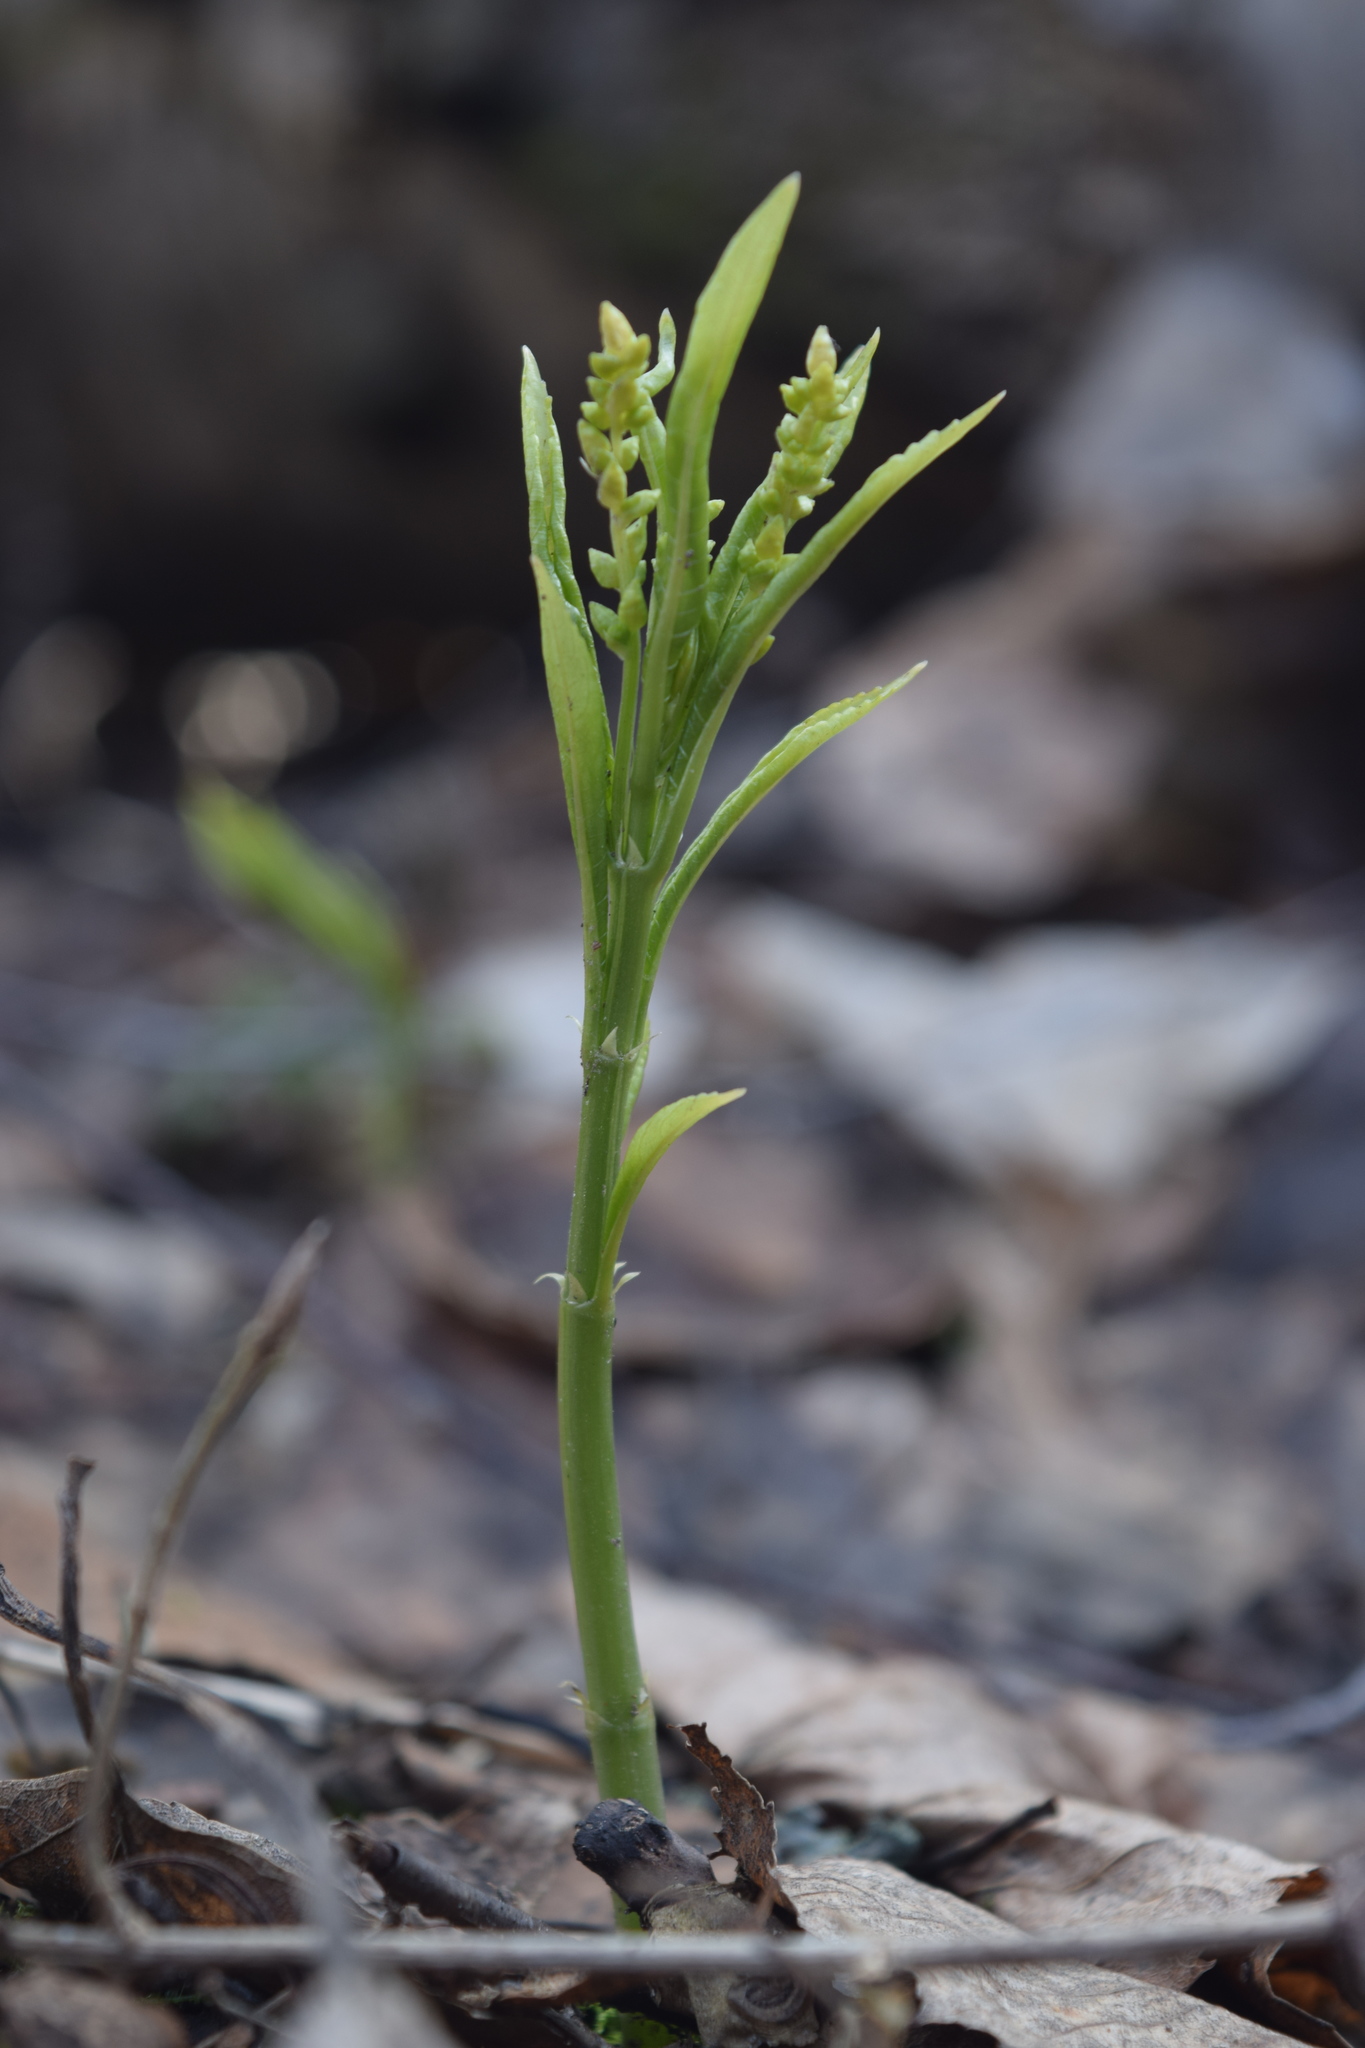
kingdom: Plantae
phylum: Tracheophyta
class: Magnoliopsida
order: Malpighiales
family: Euphorbiaceae
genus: Mercurialis
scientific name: Mercurialis perennis
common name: Dog mercury
